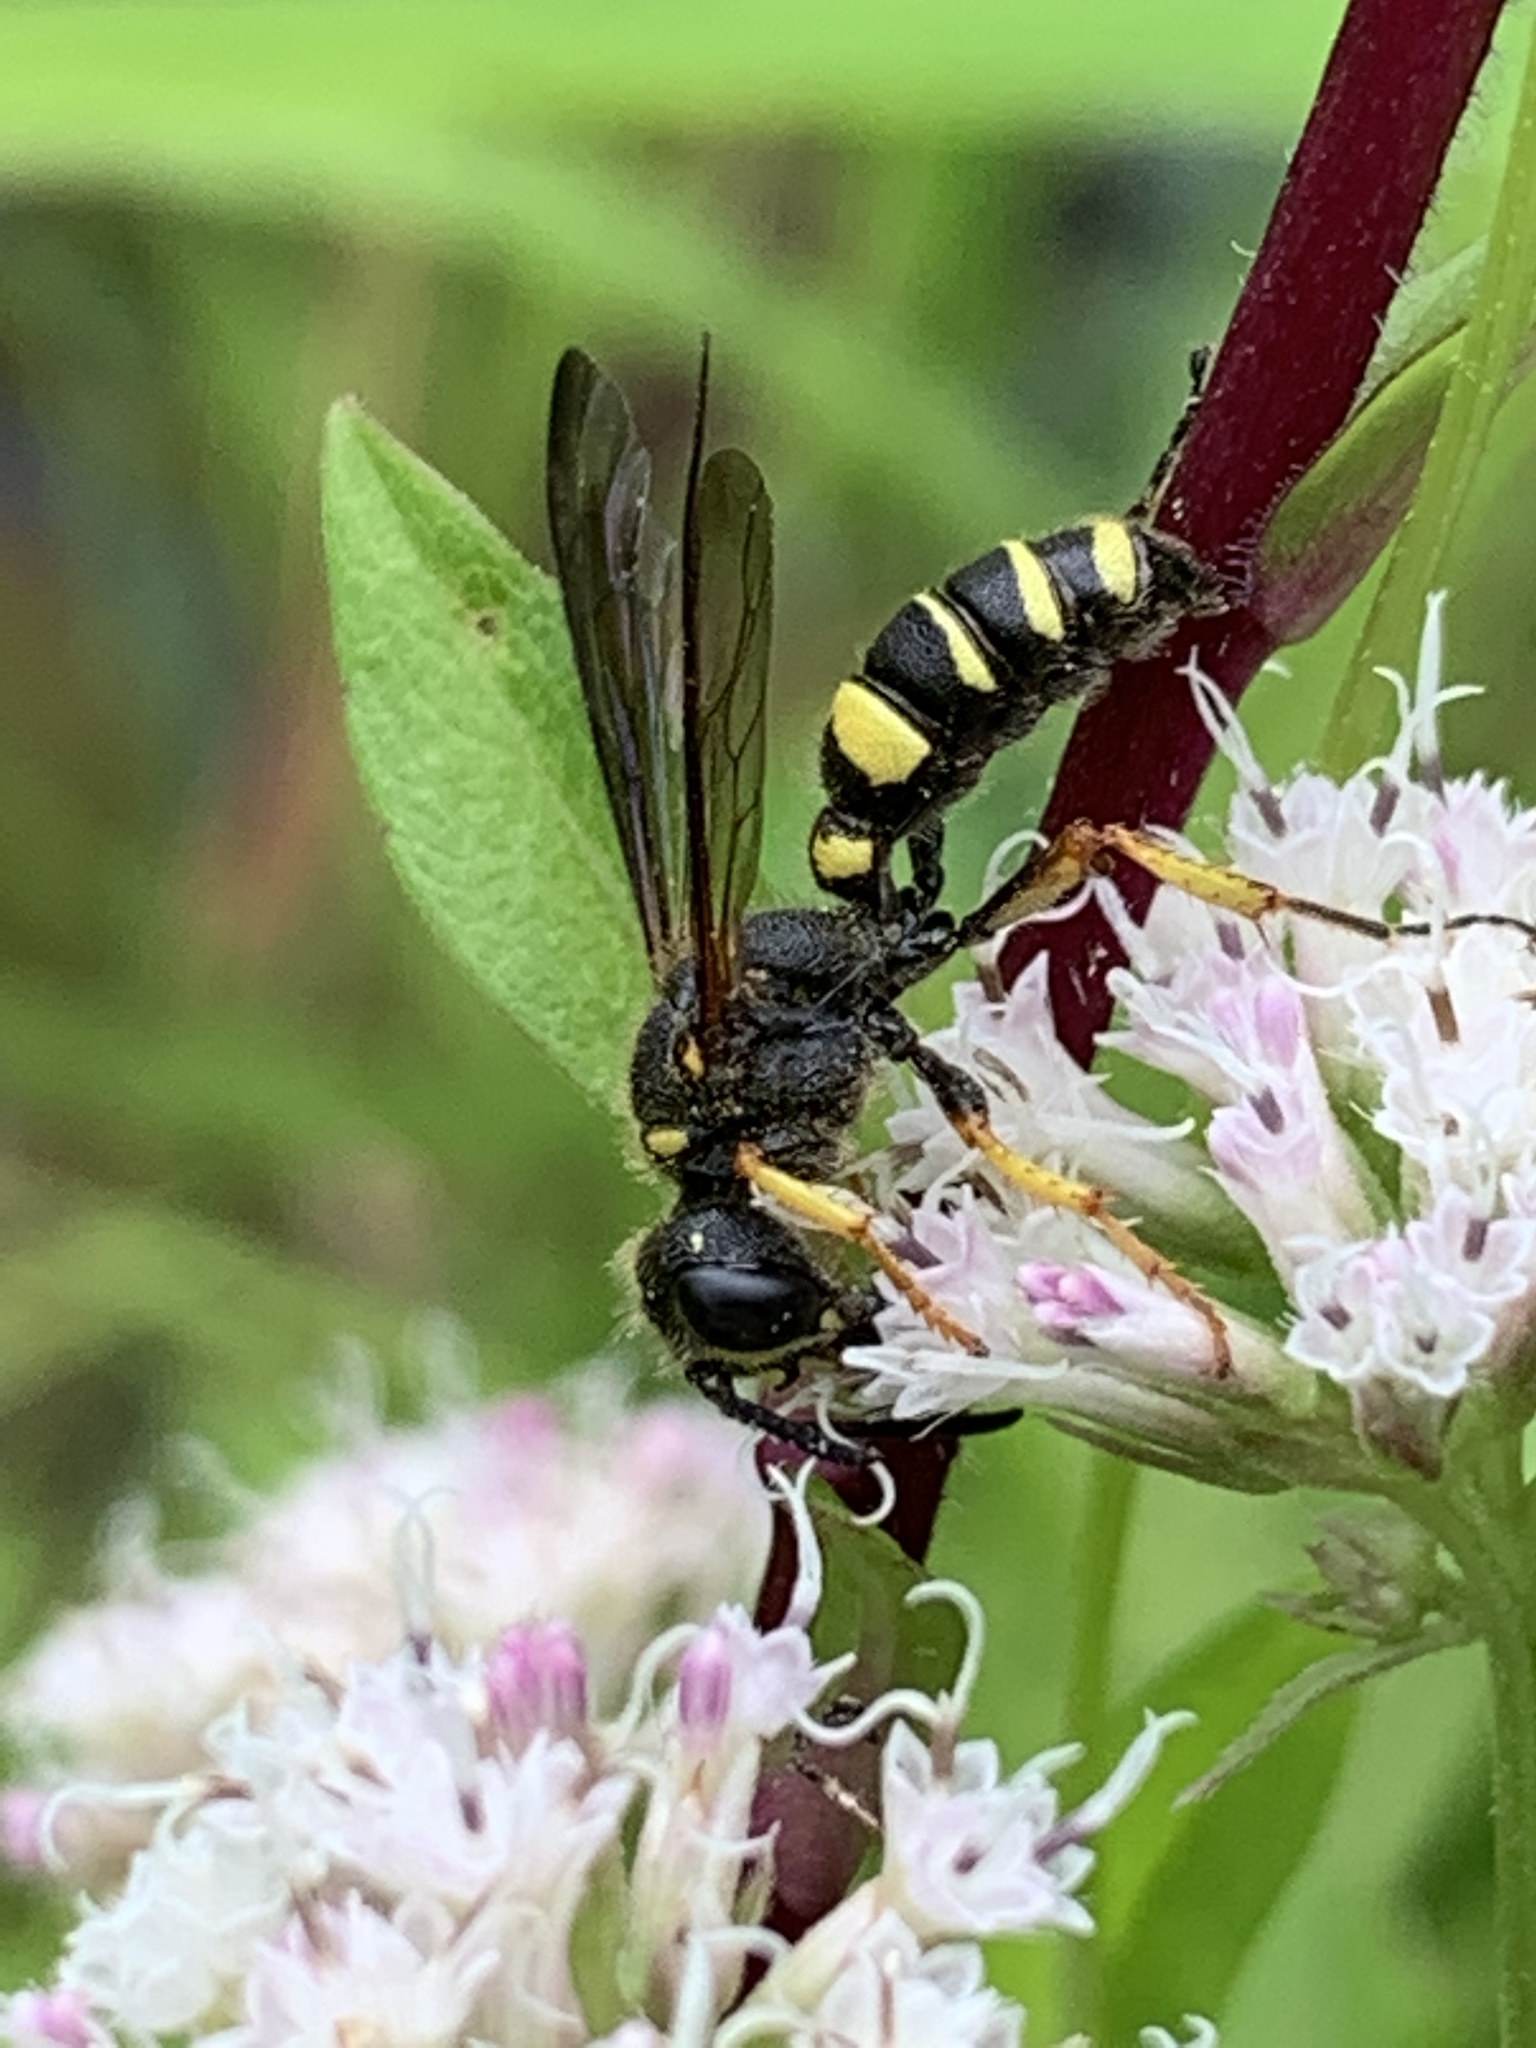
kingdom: Animalia
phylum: Arthropoda
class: Insecta
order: Hymenoptera
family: Crabronidae
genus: Cerceris
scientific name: Cerceris halone
